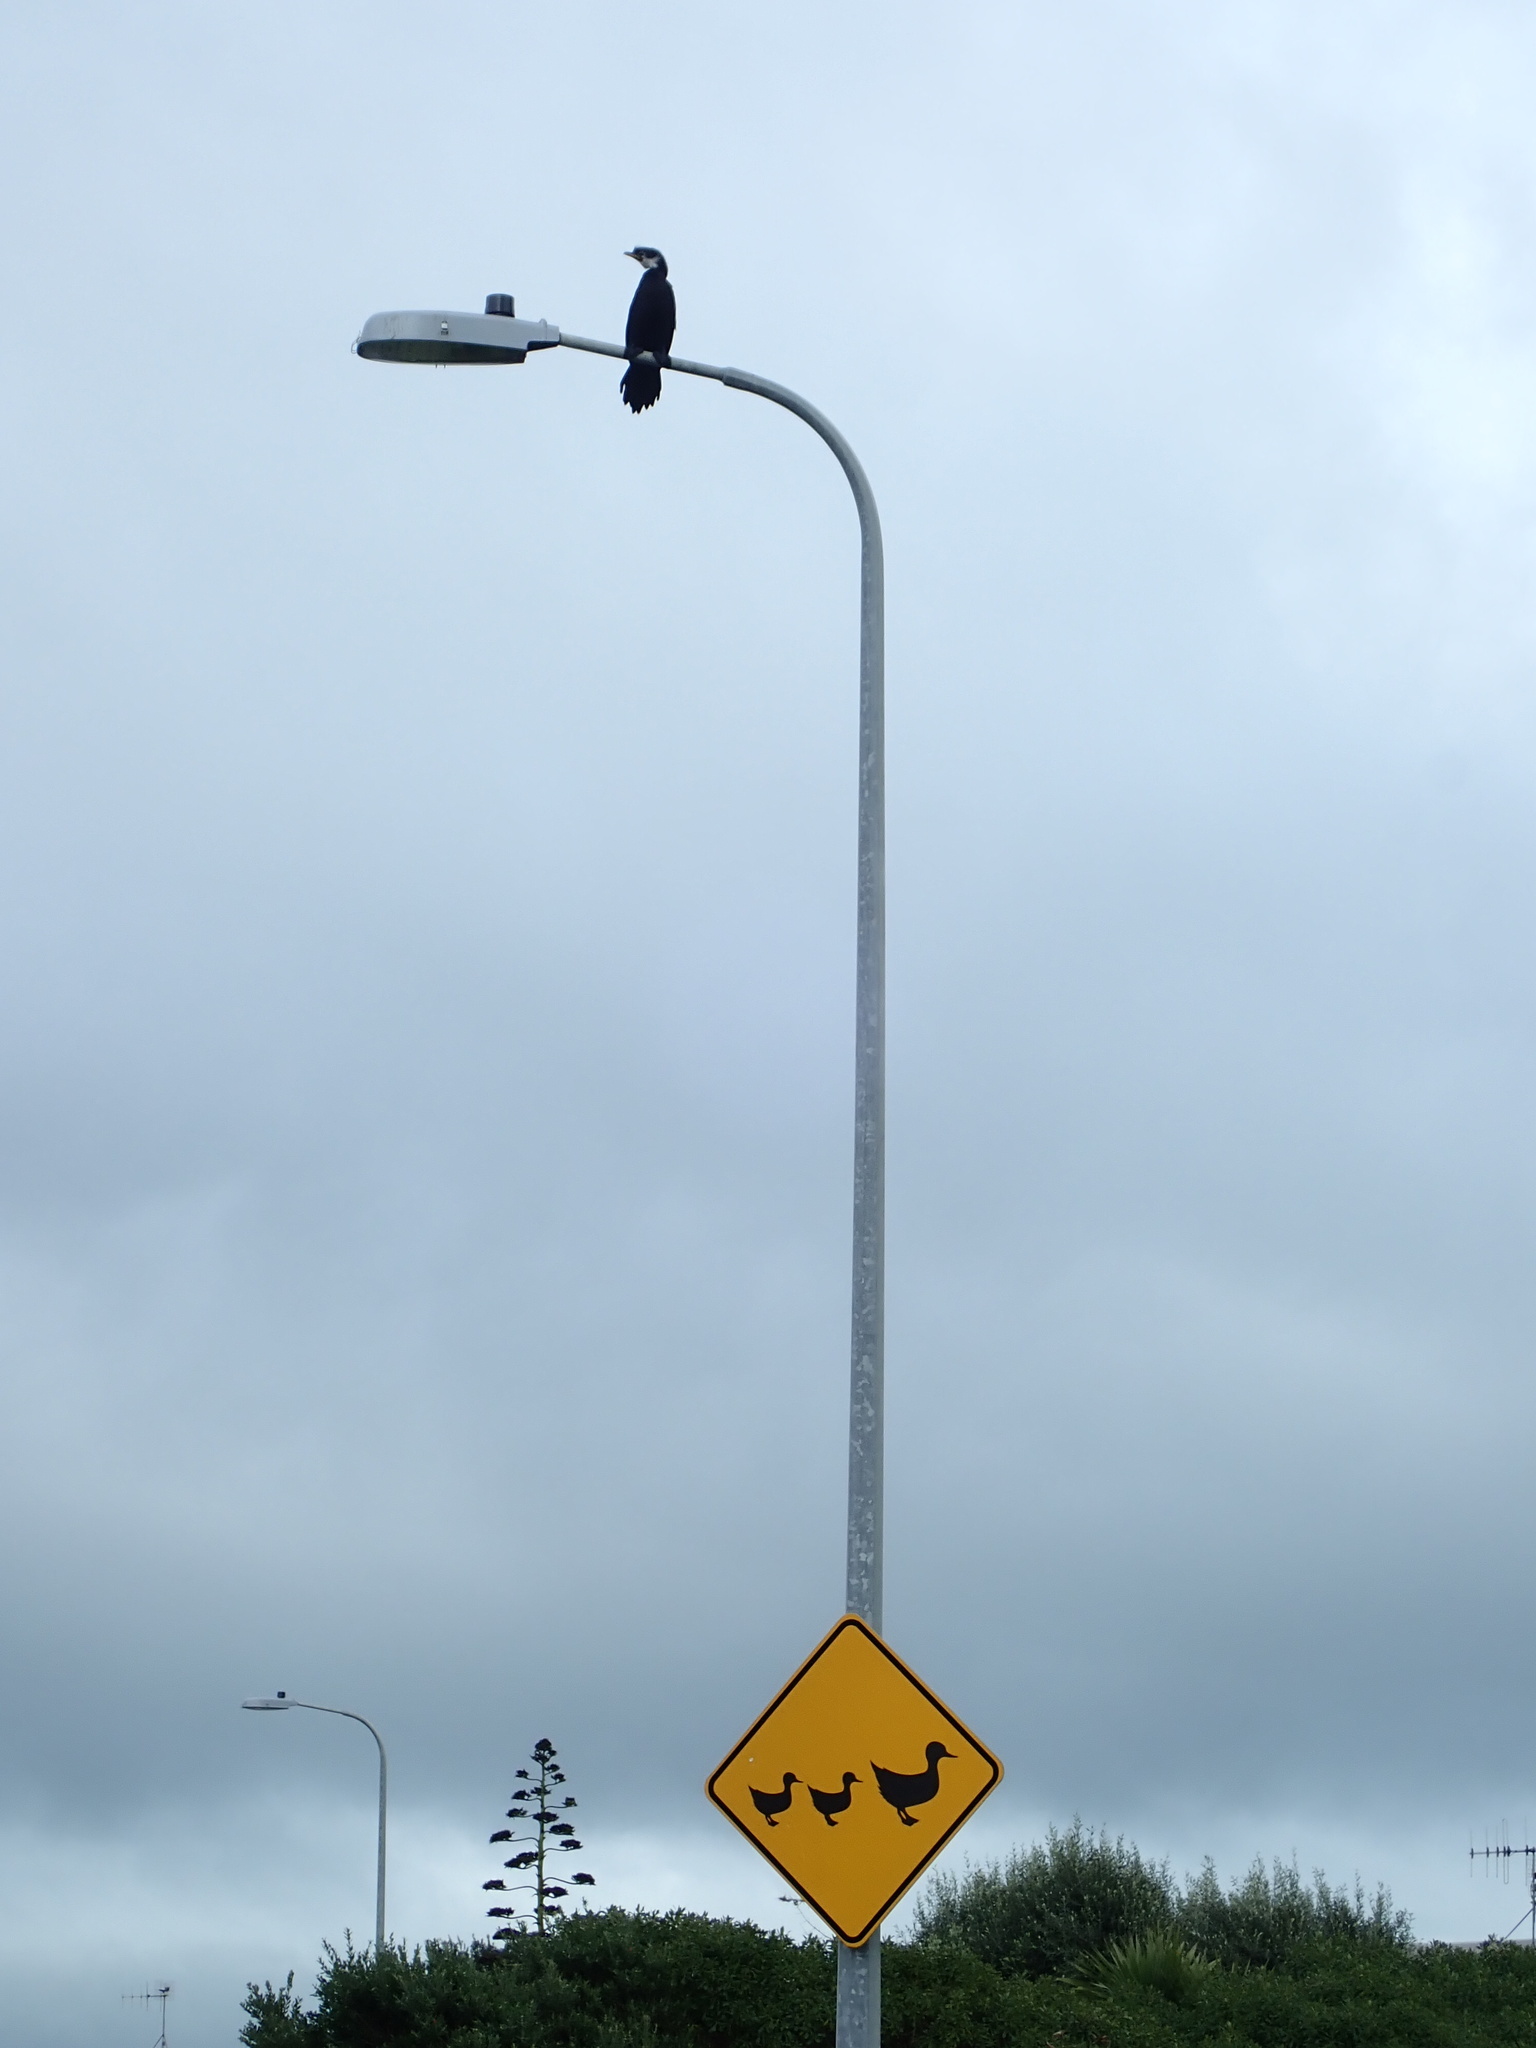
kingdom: Animalia
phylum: Chordata
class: Aves
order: Suliformes
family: Phalacrocoracidae
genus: Microcarbo
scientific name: Microcarbo melanoleucos
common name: Little pied cormorant
